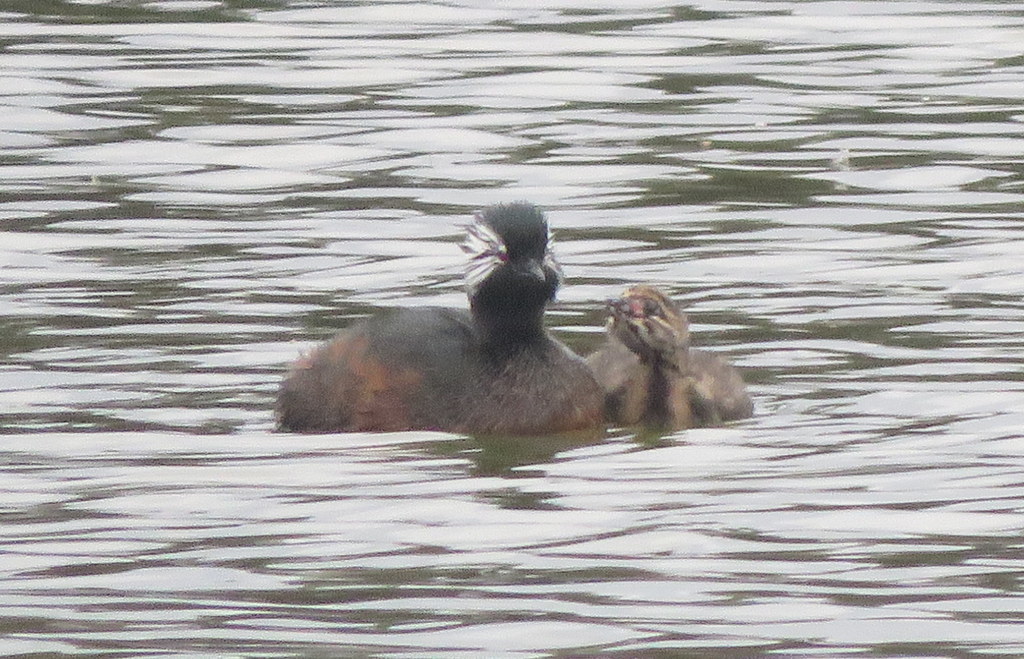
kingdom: Animalia
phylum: Chordata
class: Aves
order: Podicipediformes
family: Podicipedidae
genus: Rollandia
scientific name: Rollandia rolland
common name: White-tufted grebe
